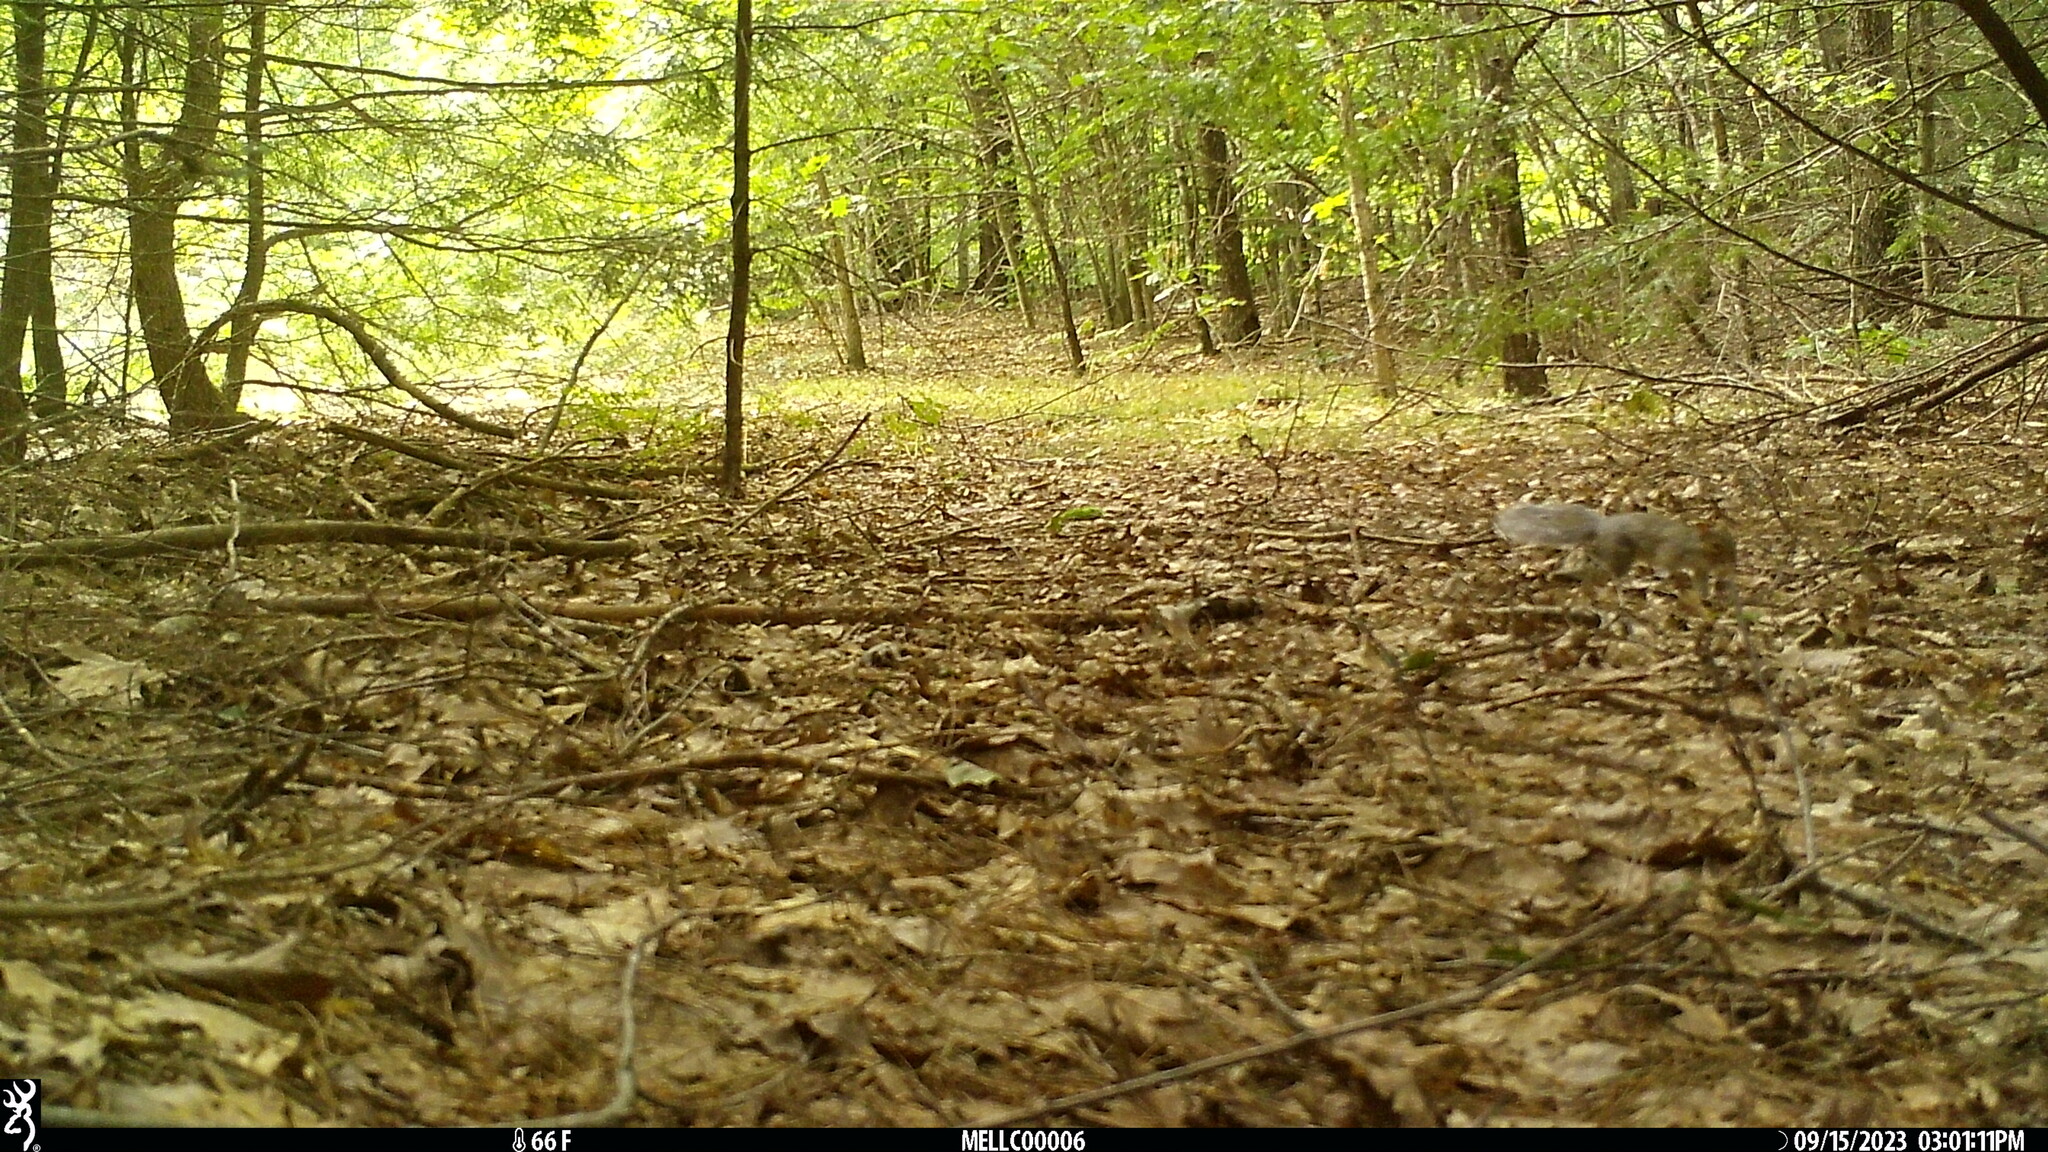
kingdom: Animalia
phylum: Chordata
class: Mammalia
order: Rodentia
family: Sciuridae
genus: Sciurus
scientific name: Sciurus carolinensis
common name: Eastern gray squirrel
